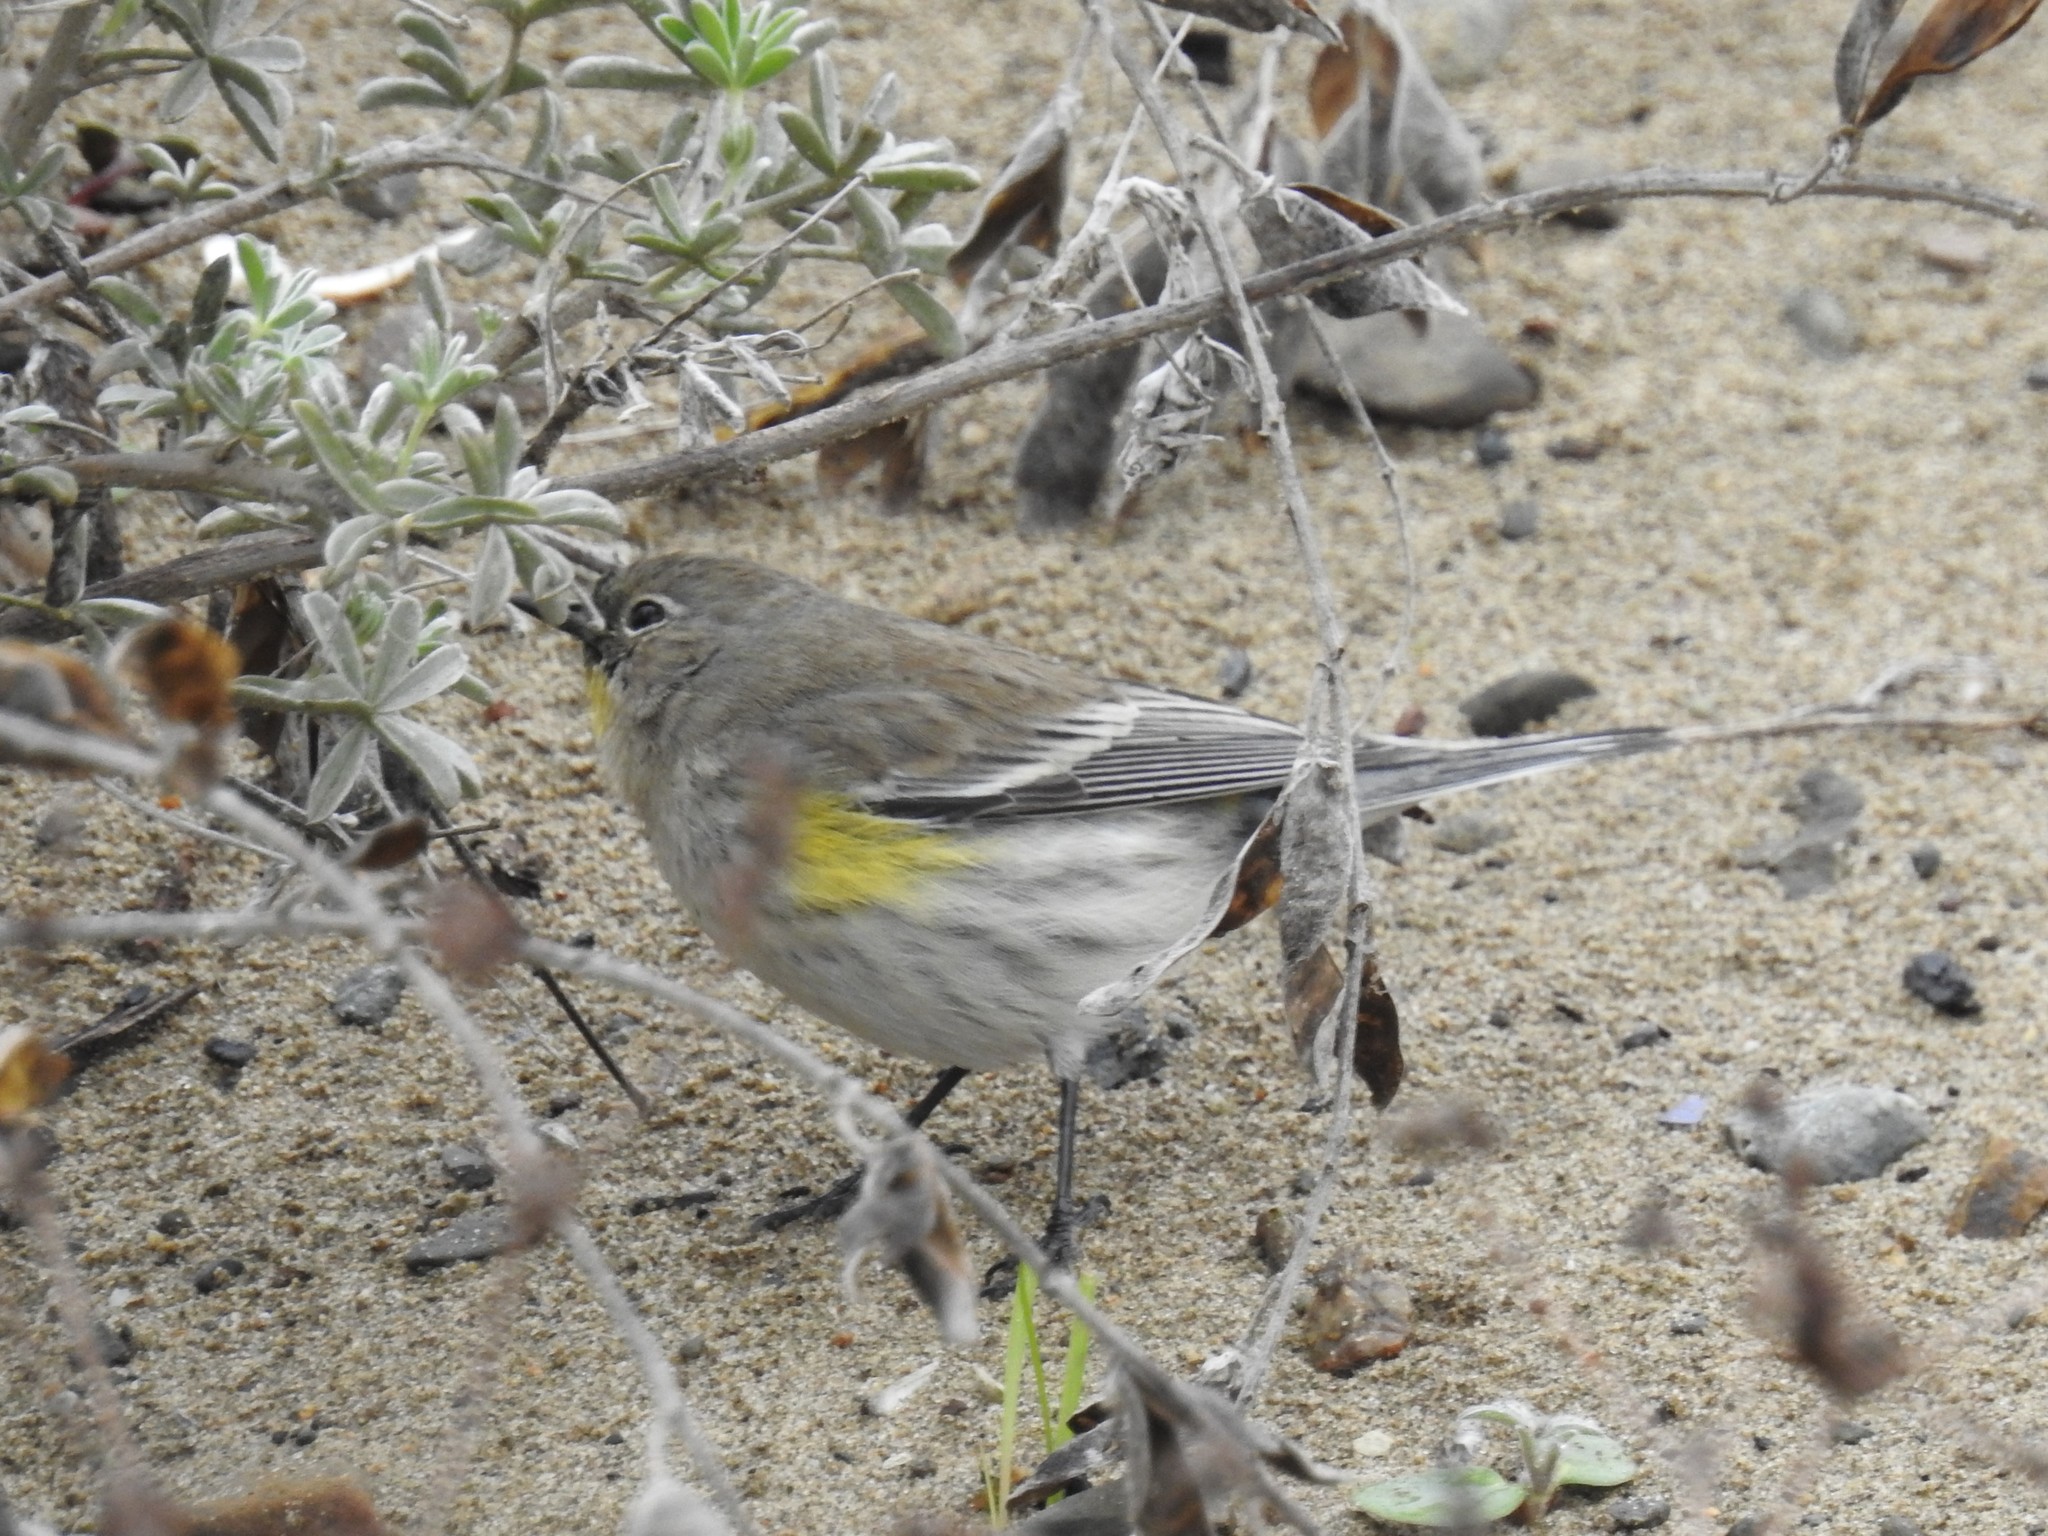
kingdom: Animalia
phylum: Chordata
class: Aves
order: Passeriformes
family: Parulidae
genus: Setophaga
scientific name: Setophaga coronata
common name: Myrtle warbler
